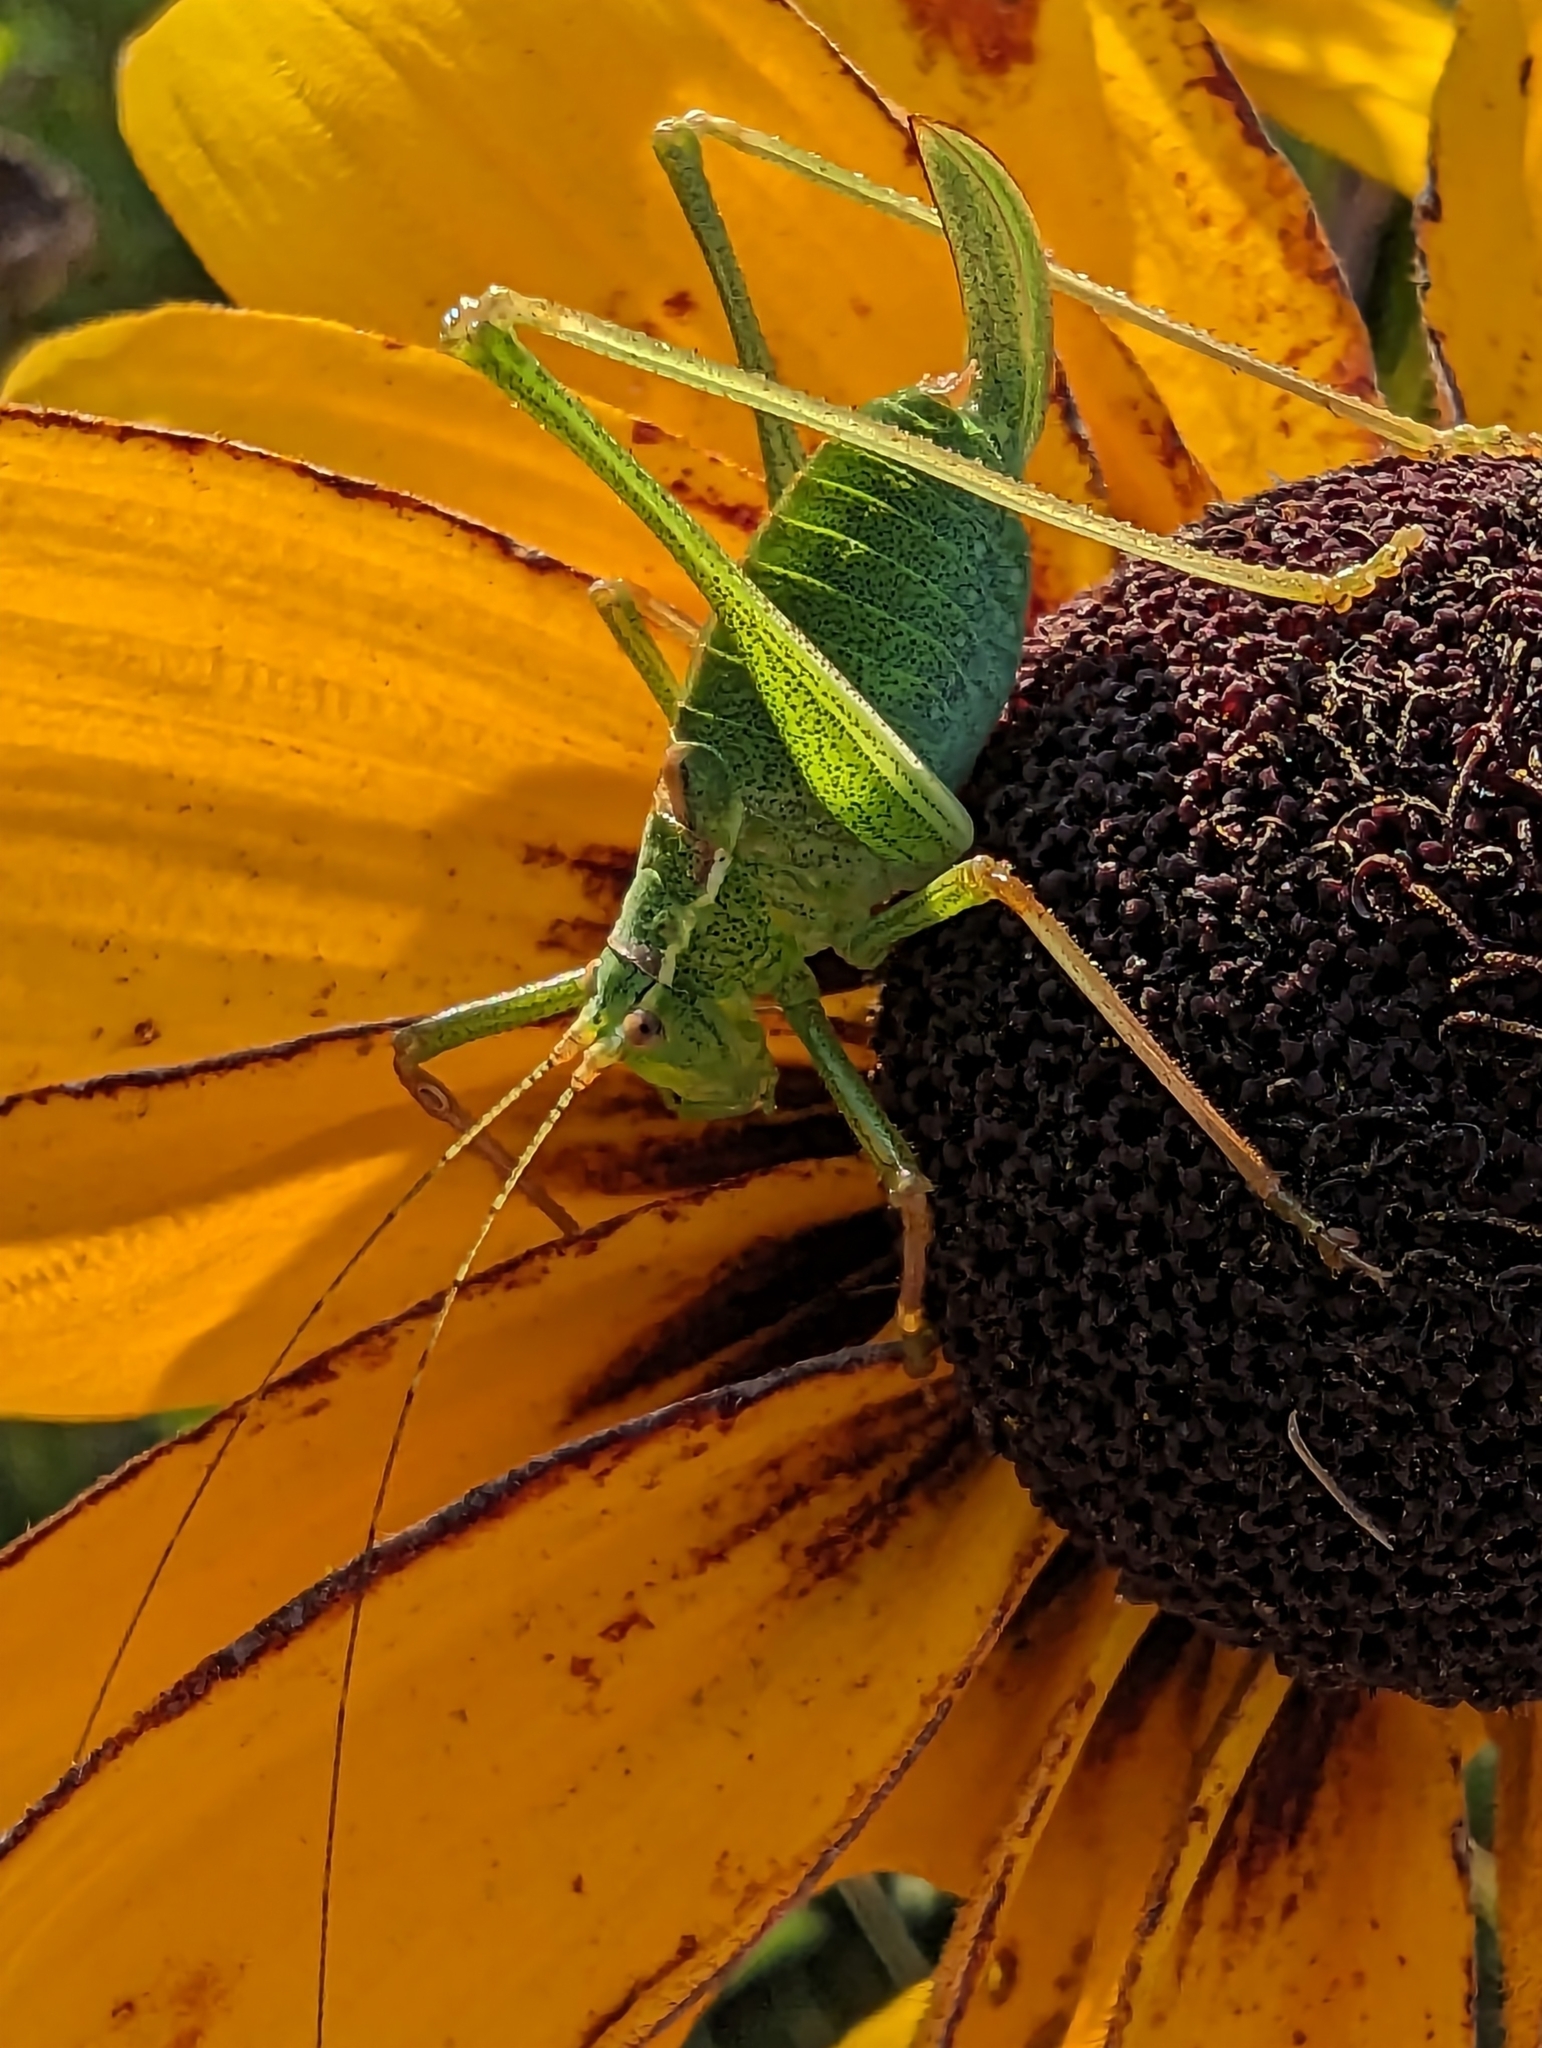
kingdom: Animalia
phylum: Arthropoda
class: Insecta
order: Orthoptera
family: Tettigoniidae
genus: Leptophyes
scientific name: Leptophyes punctatissima
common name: Speckled bush-cricket
